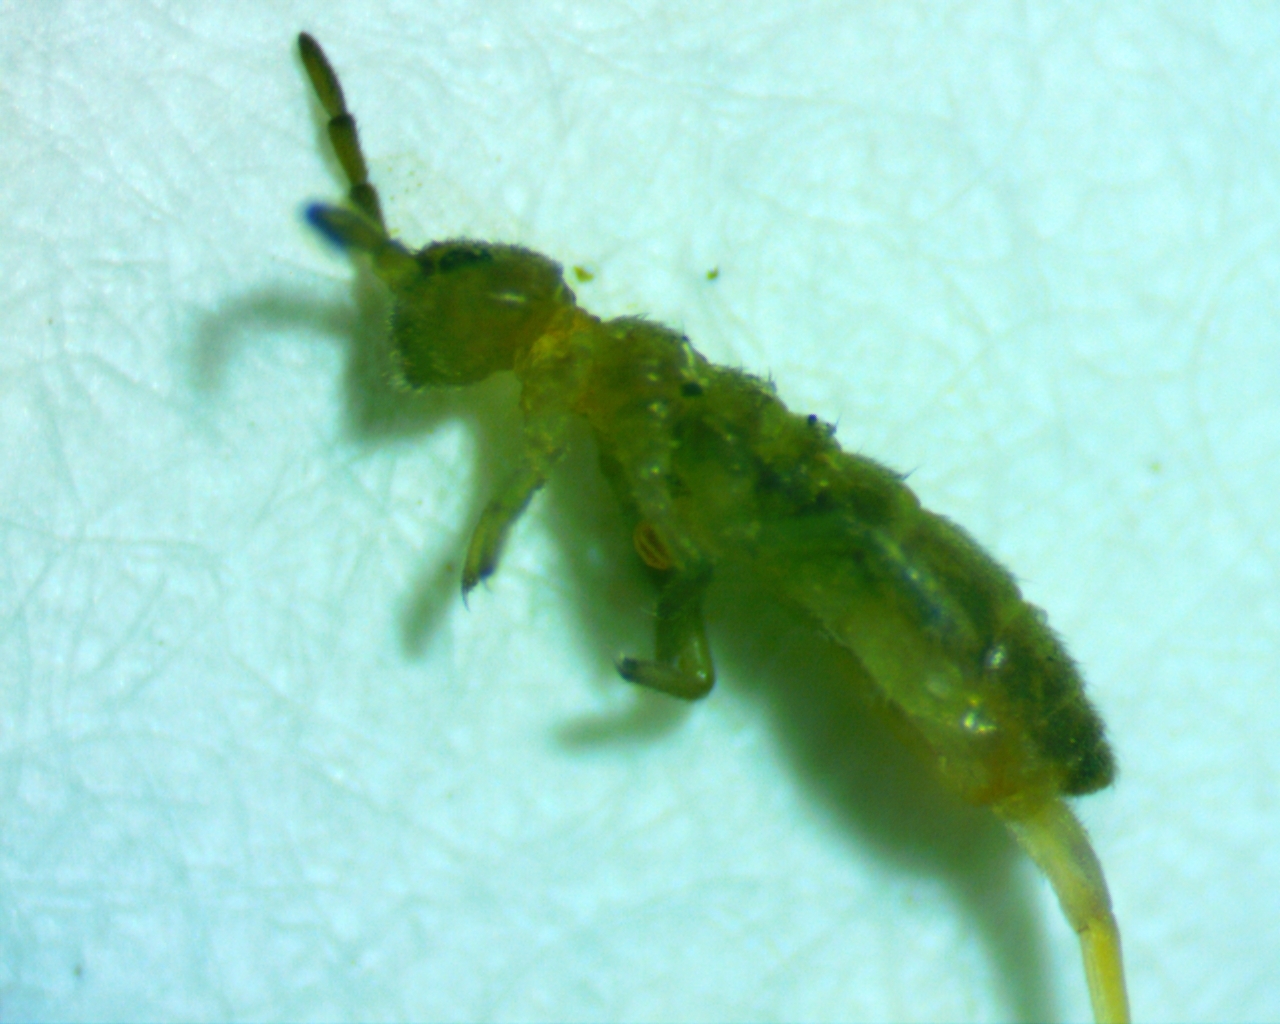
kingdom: Animalia
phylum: Arthropoda
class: Collembola
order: Entomobryomorpha
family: Isotomidae
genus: Isotomurus
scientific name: Isotomurus tricolor
